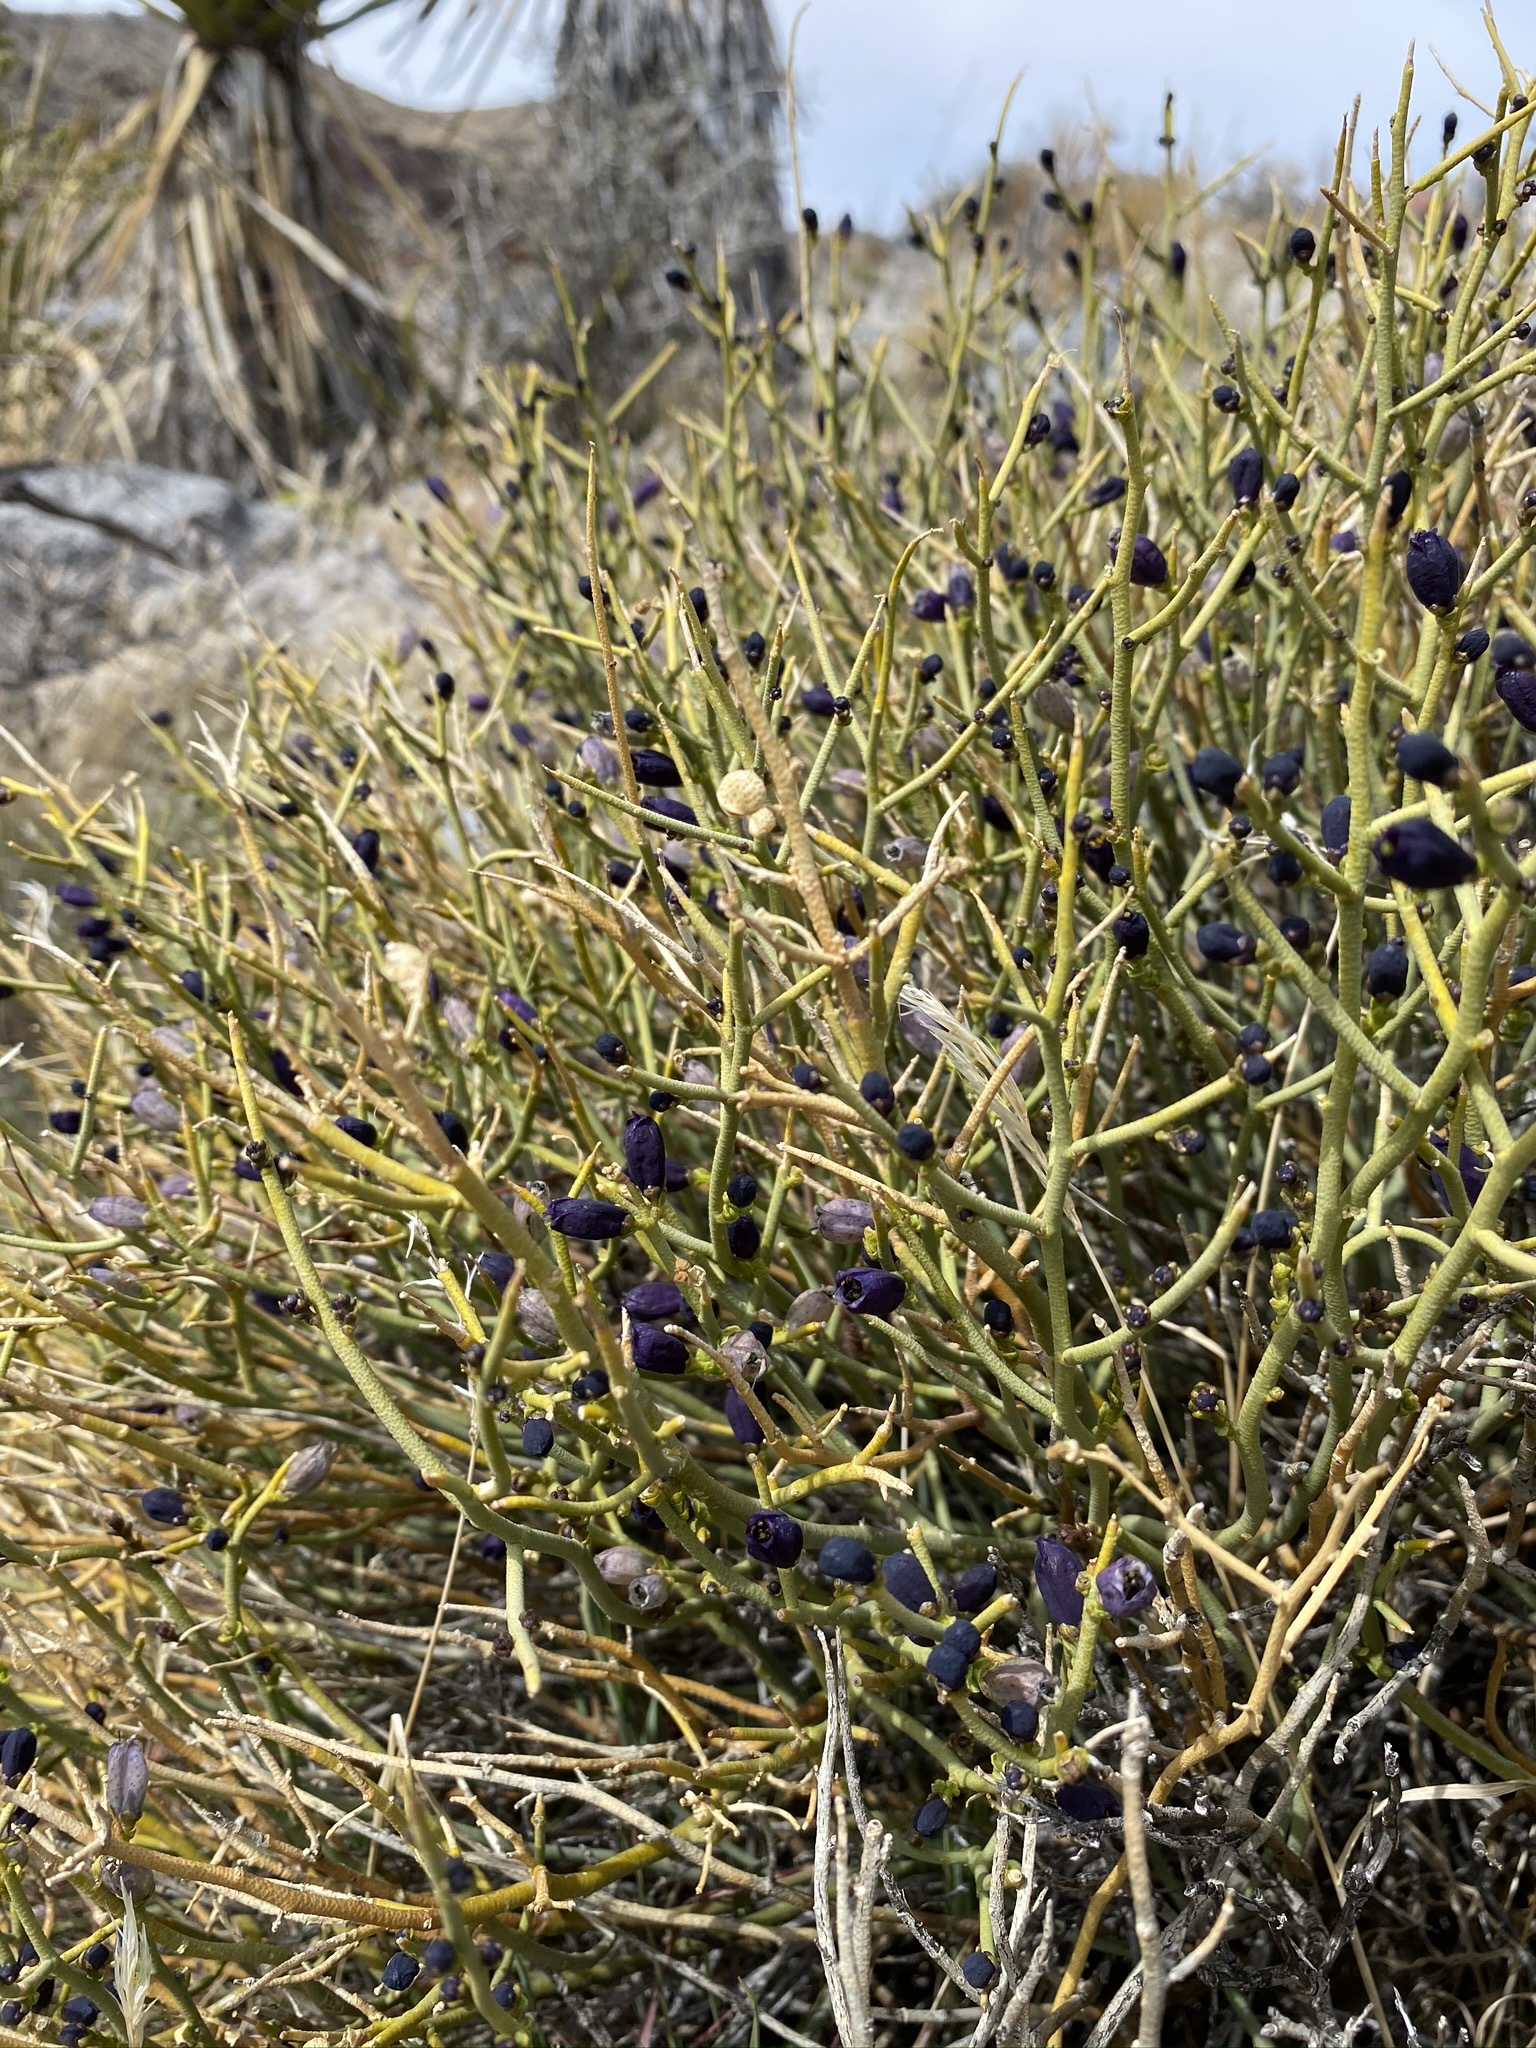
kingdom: Plantae
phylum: Tracheophyta
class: Magnoliopsida
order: Sapindales
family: Rutaceae
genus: Thamnosma
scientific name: Thamnosma montana
